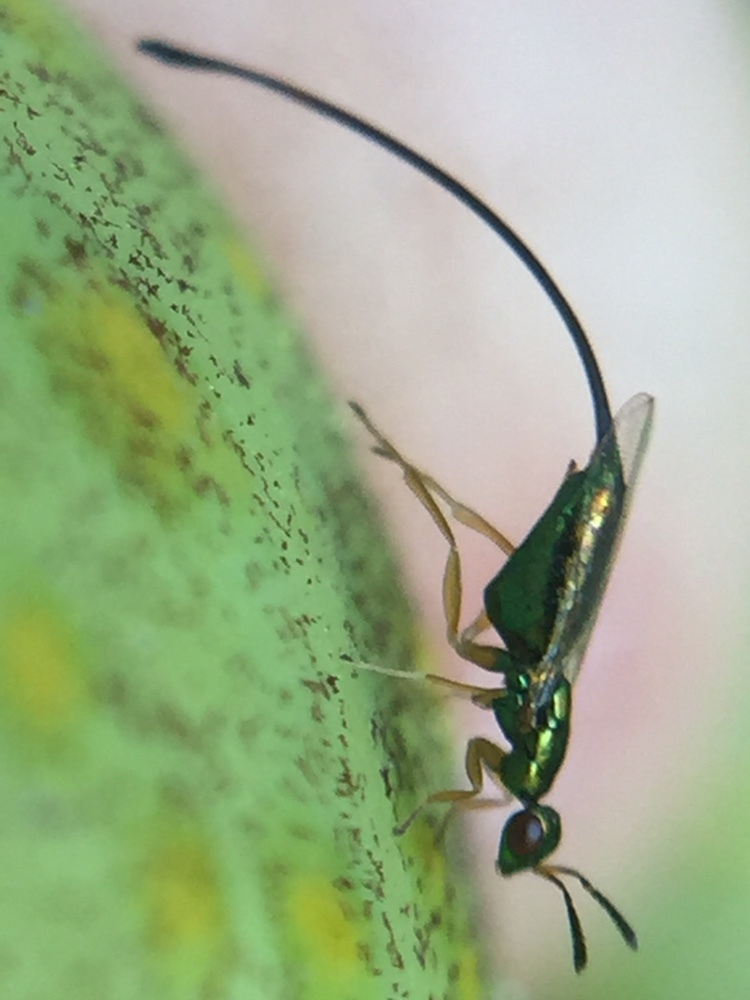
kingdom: Animalia
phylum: Arthropoda
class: Insecta
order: Hymenoptera
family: Agaonidae
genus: Sycoscapter
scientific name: Sycoscapter australis
